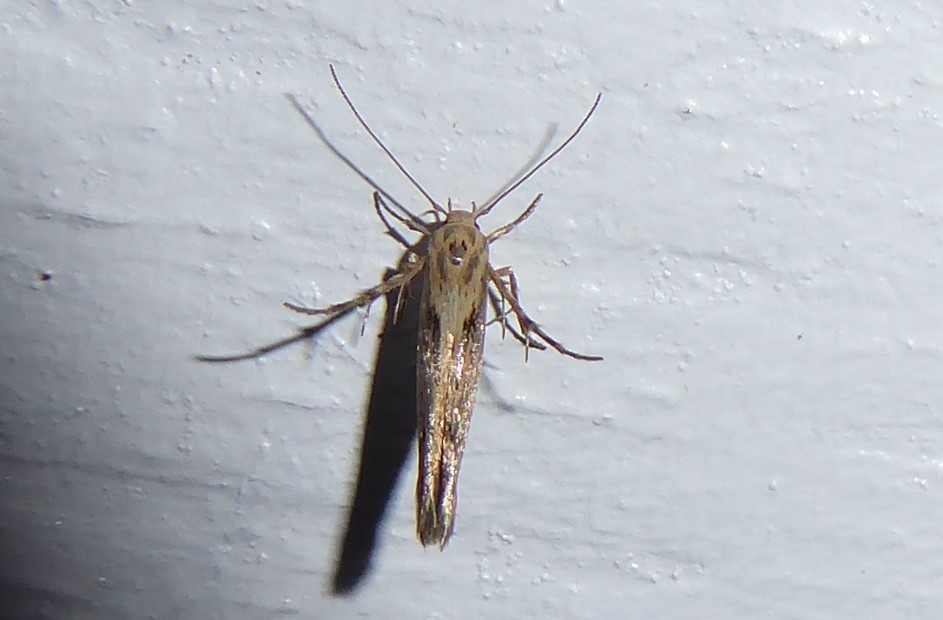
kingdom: Animalia
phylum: Arthropoda
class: Insecta
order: Lepidoptera
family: Stathmopodidae
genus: Stathmopoda
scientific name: Stathmopoda plumbiflua
